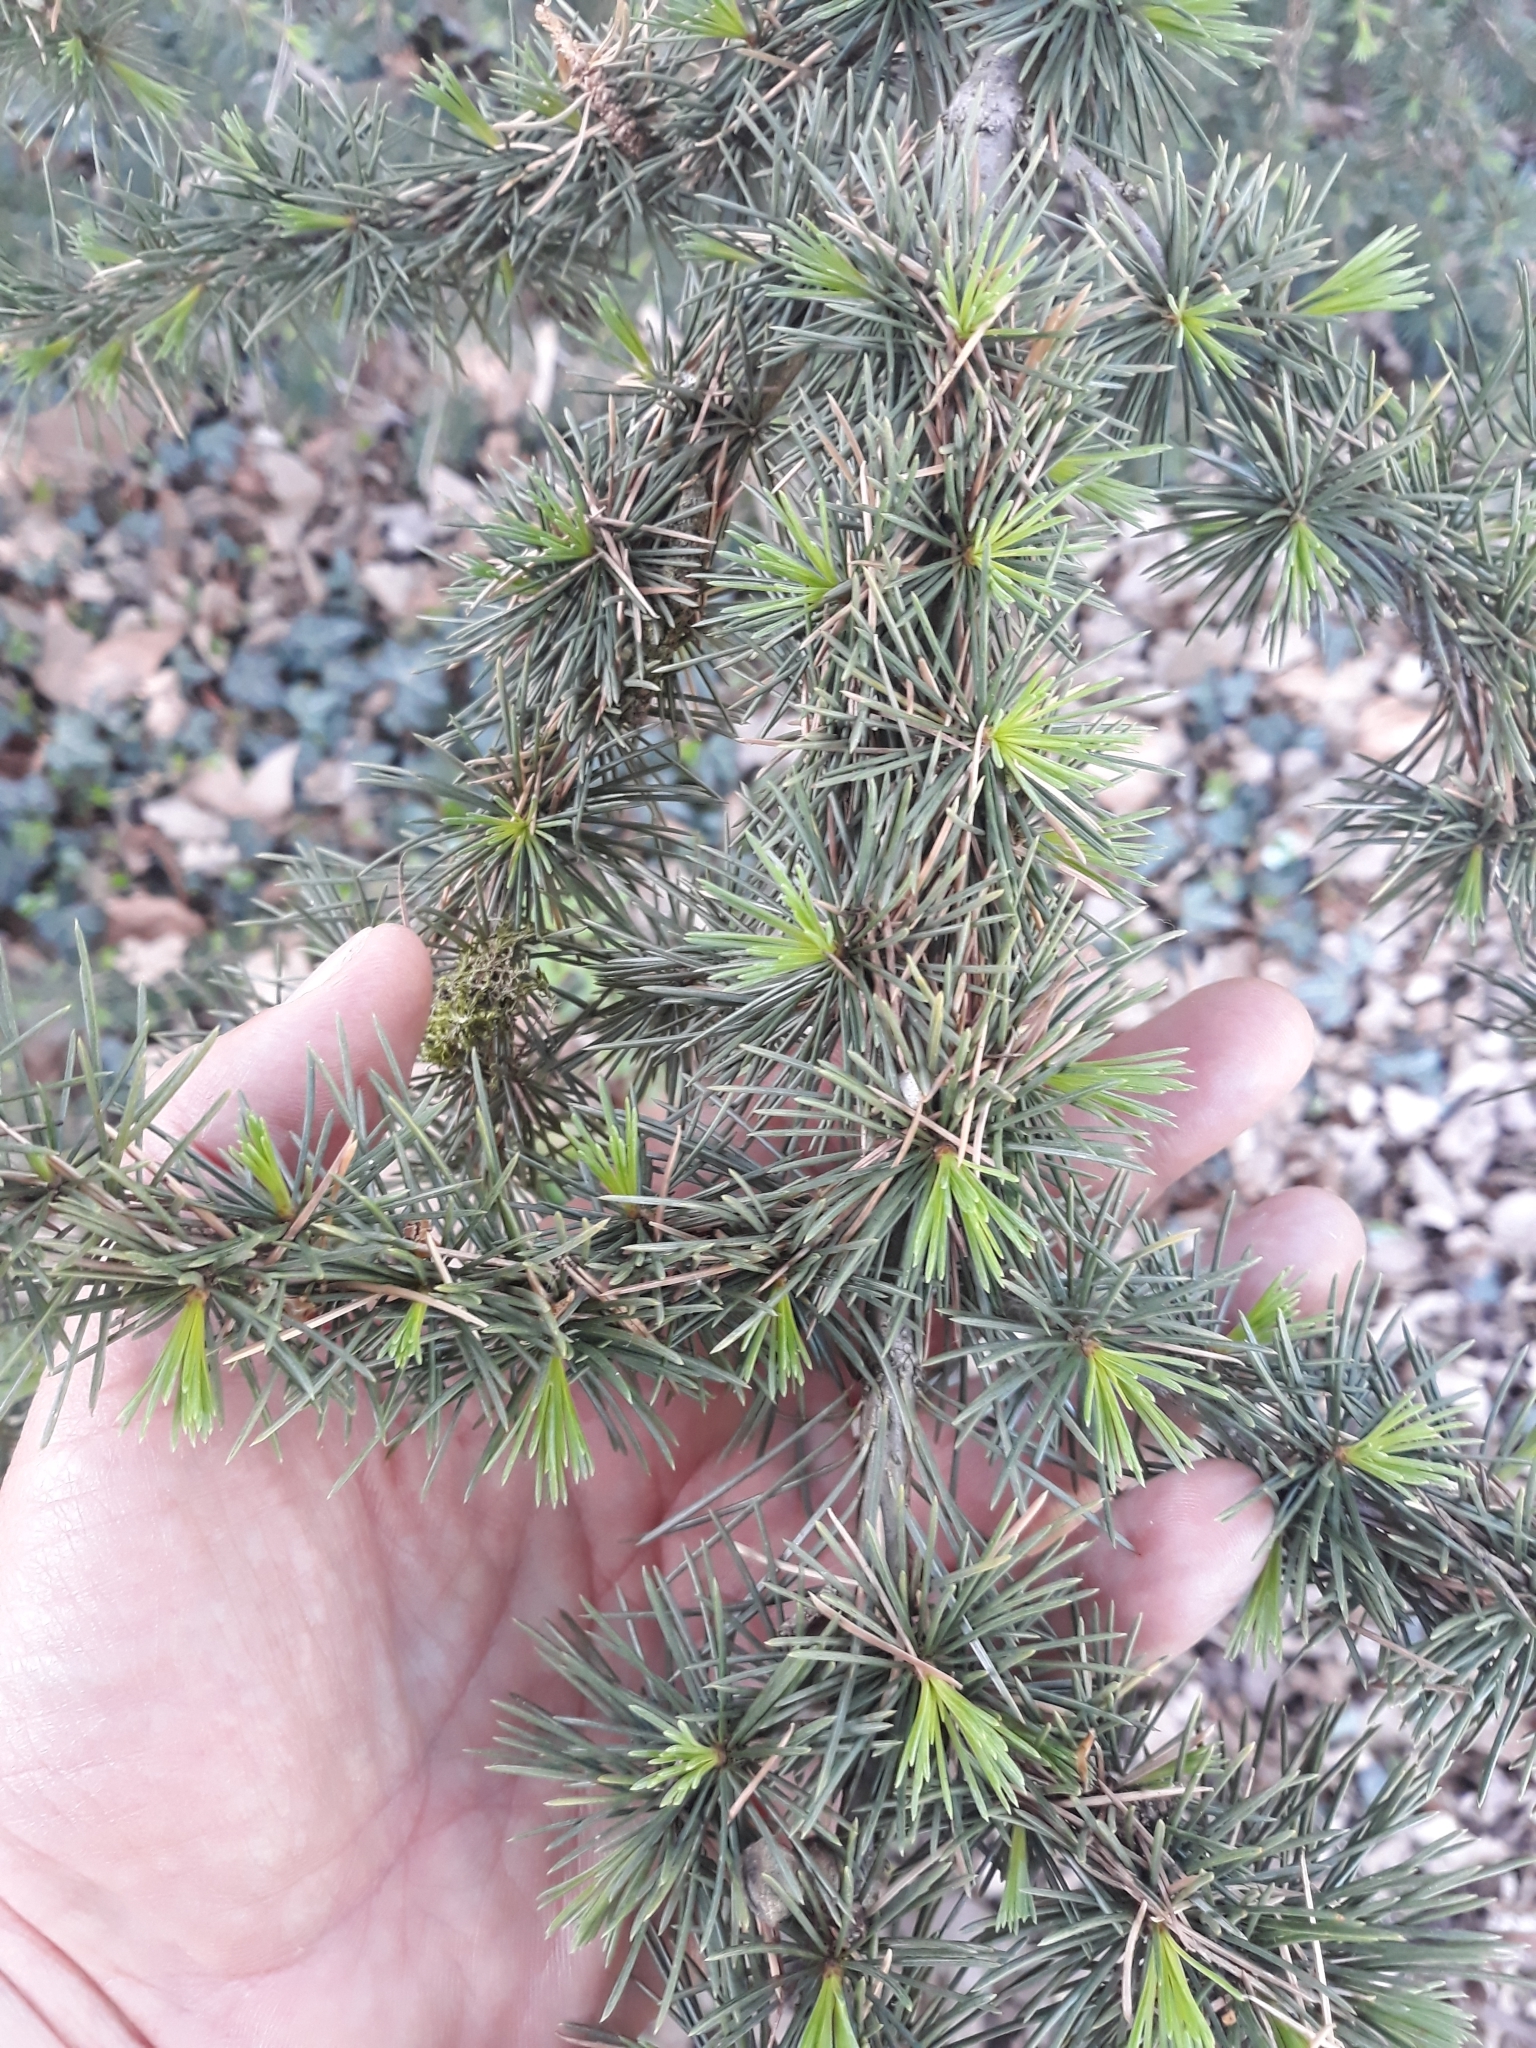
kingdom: Plantae
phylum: Tracheophyta
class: Pinopsida
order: Pinales
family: Pinaceae
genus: Cedrus
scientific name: Cedrus atlantica
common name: Atlas cedar
